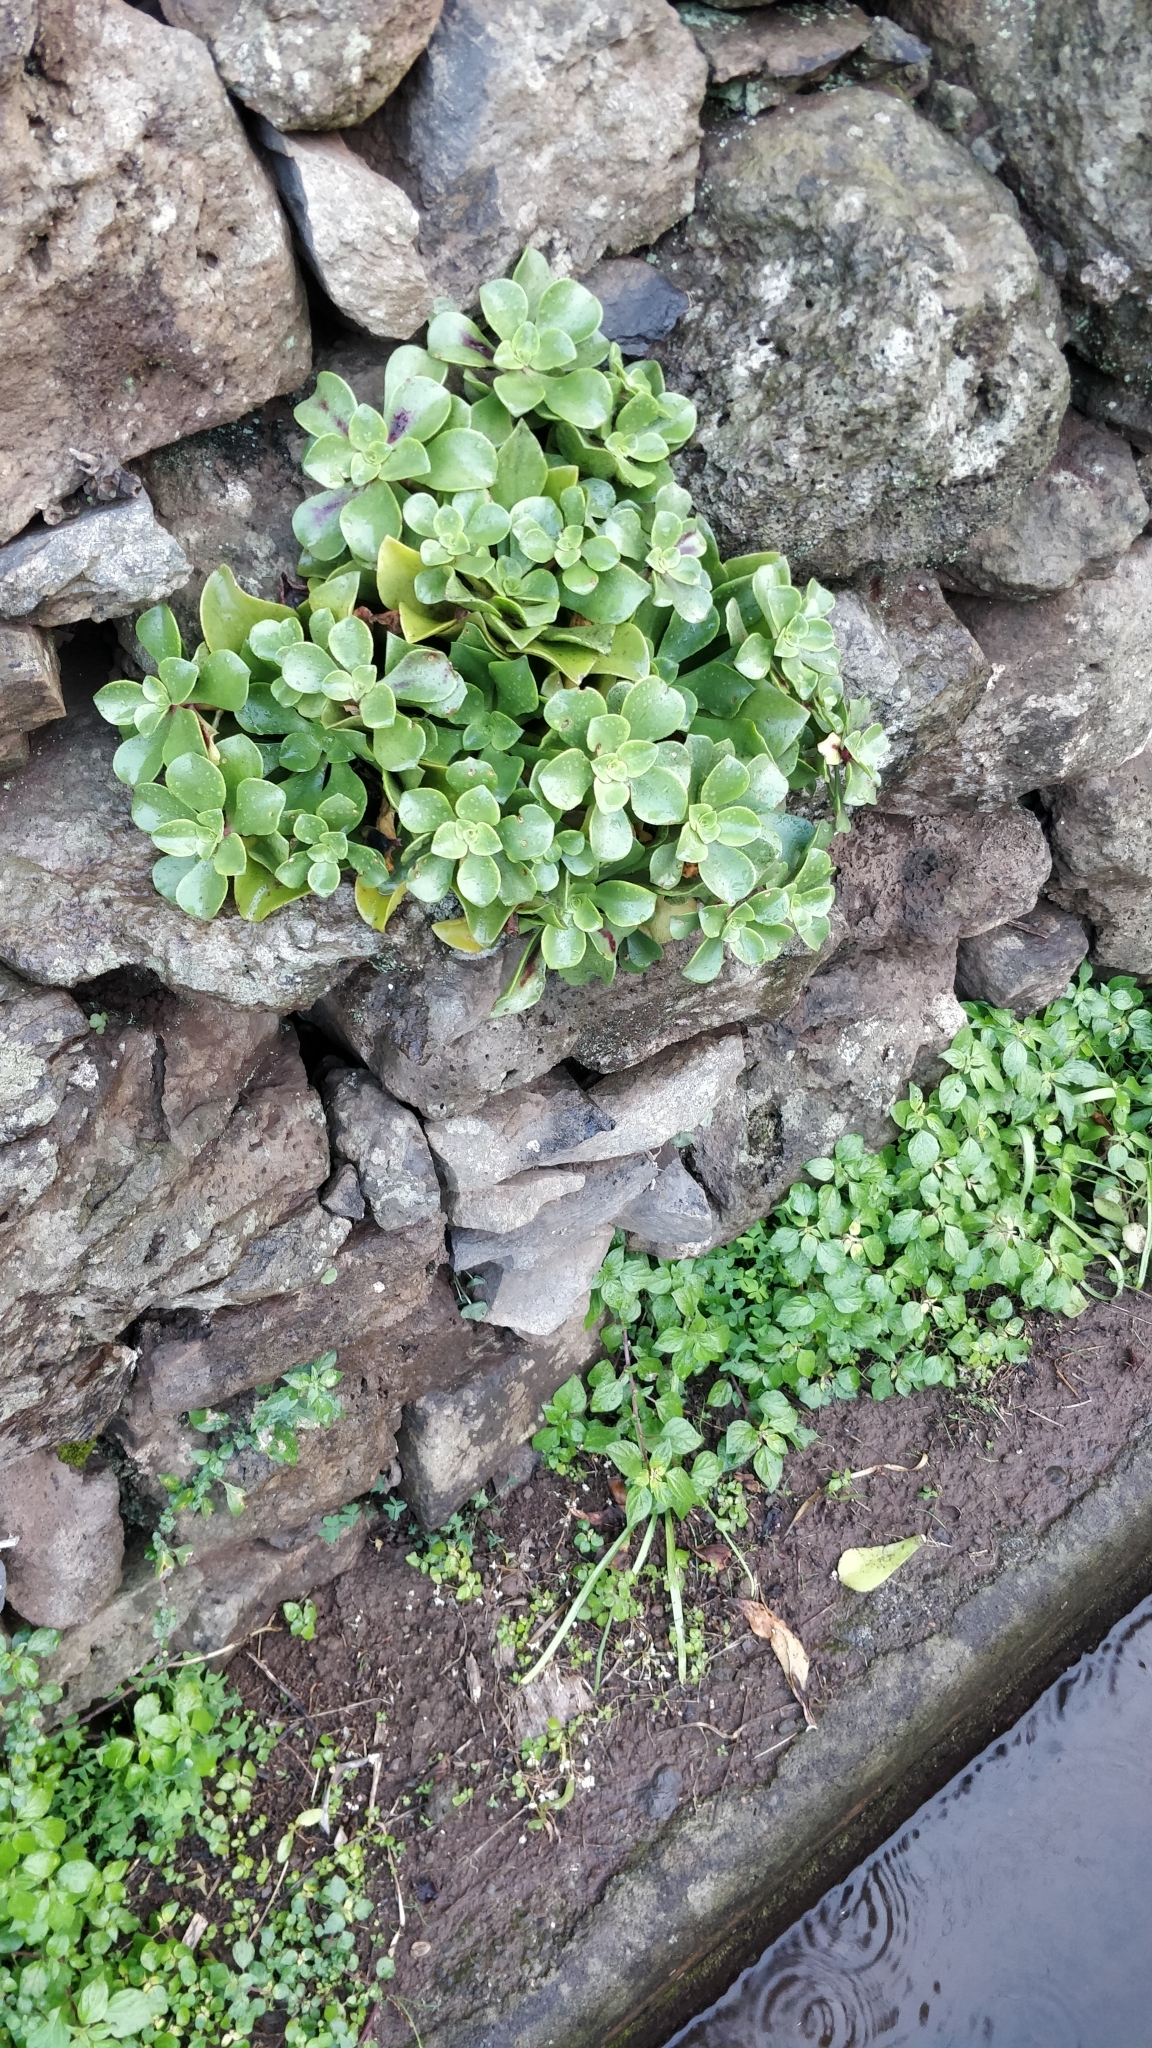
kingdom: Plantae
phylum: Tracheophyta
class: Magnoliopsida
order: Saxifragales
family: Crassulaceae
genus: Aeonium
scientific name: Aeonium glutinosum
